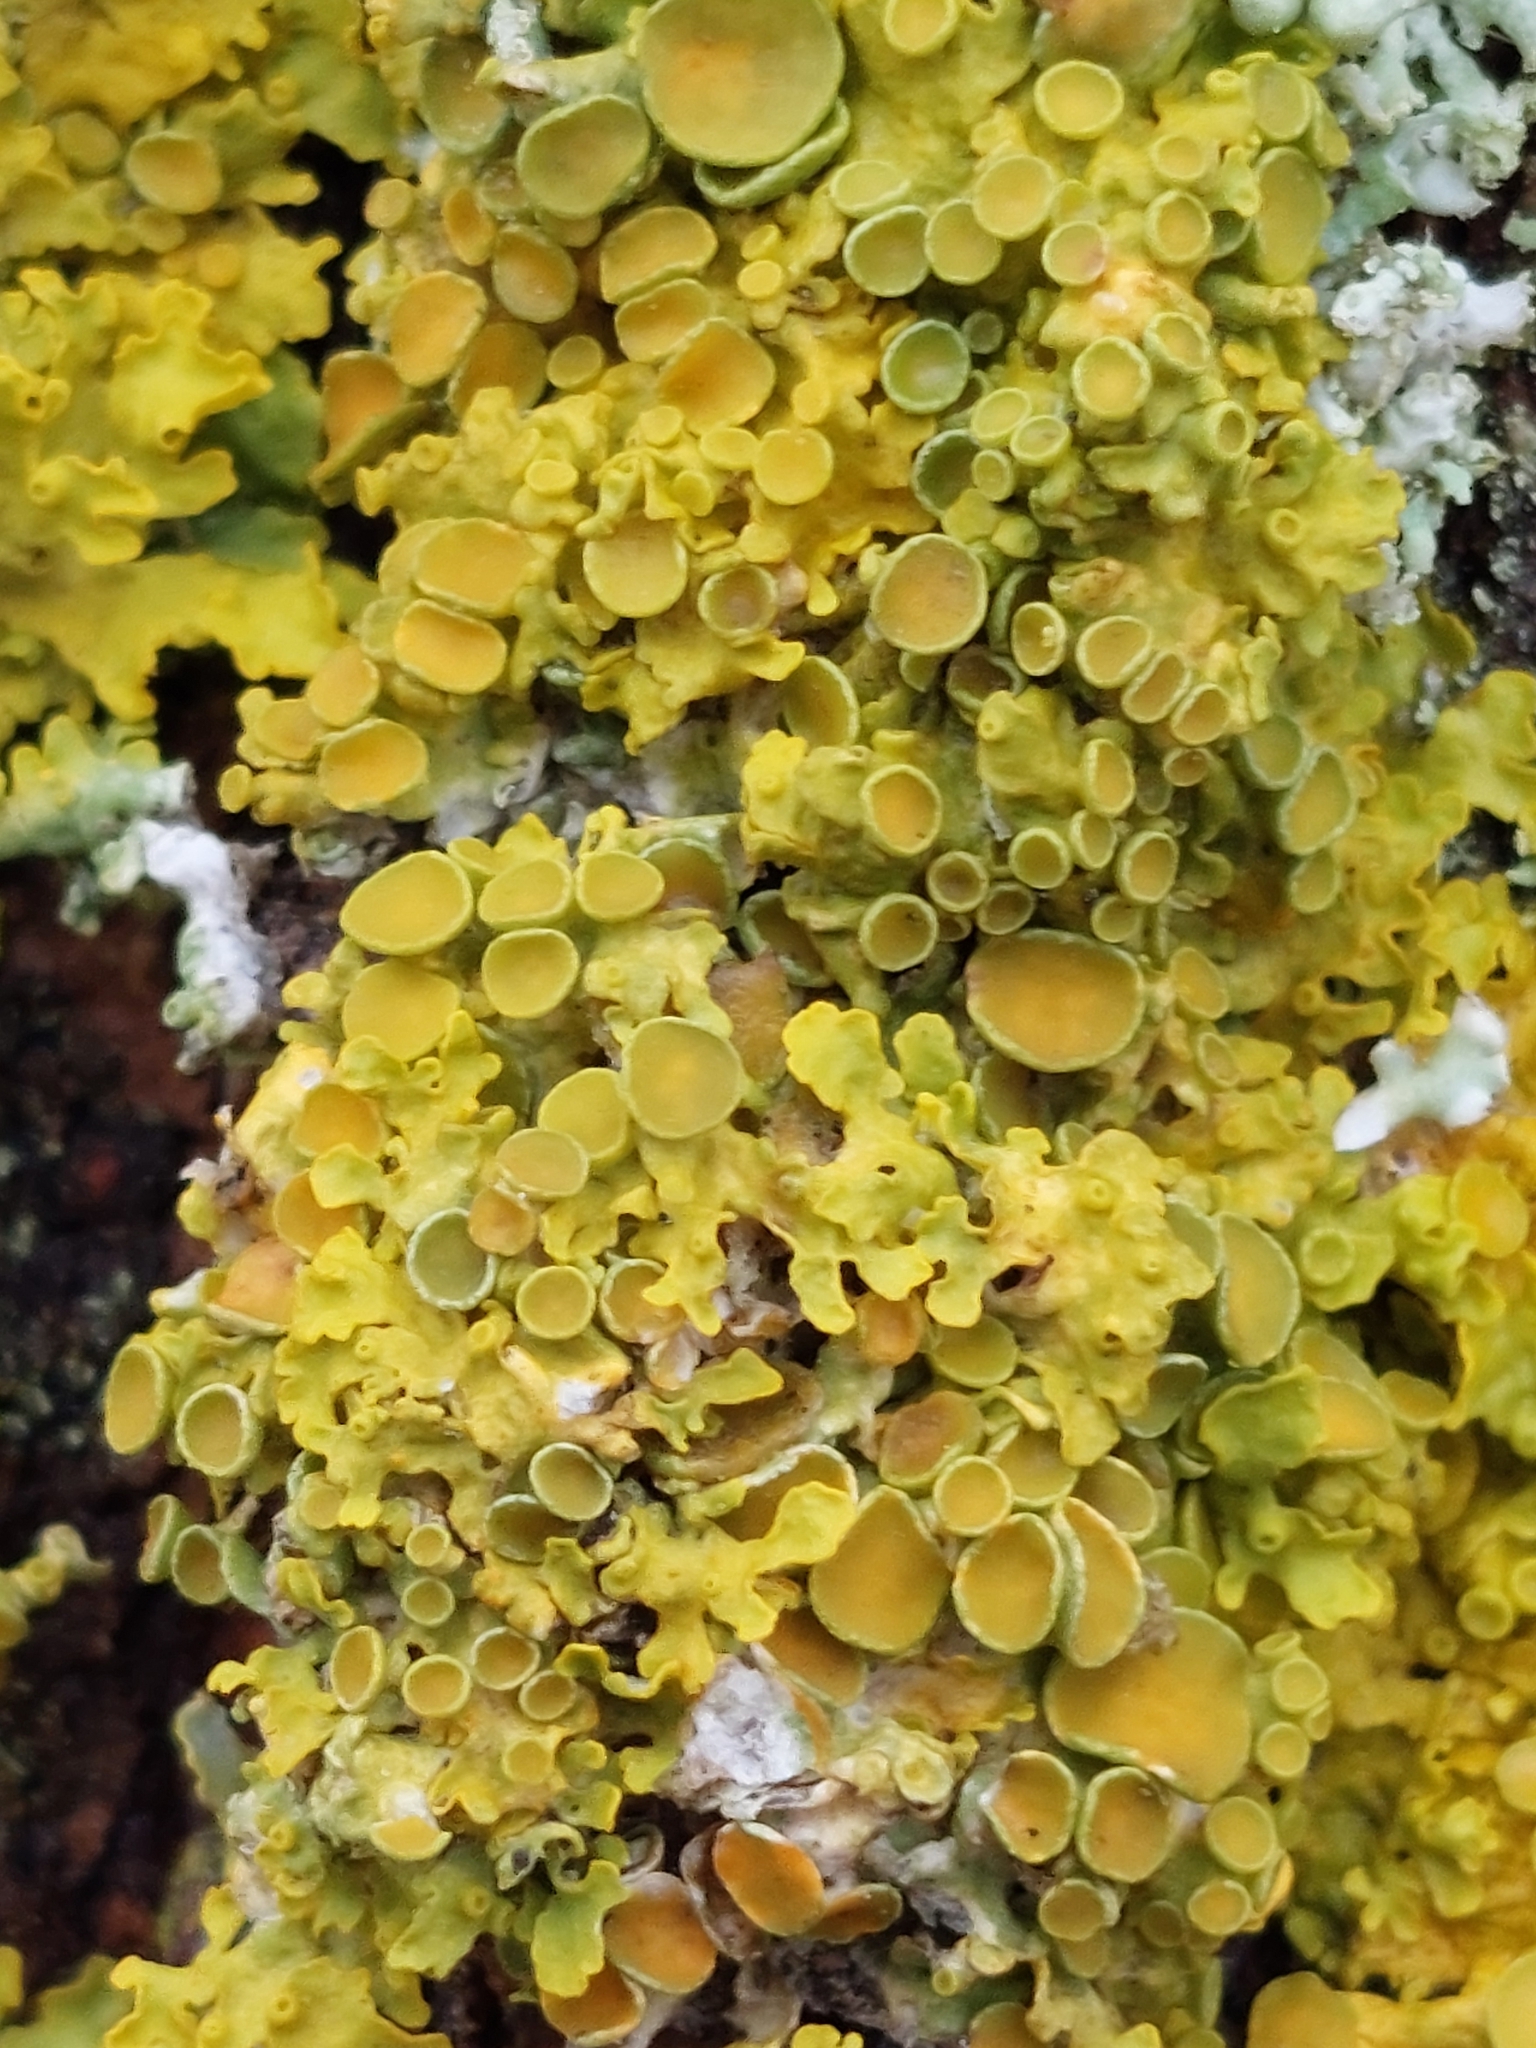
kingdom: Fungi
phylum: Ascomycota
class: Lecanoromycetes
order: Teloschistales
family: Teloschistaceae
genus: Xanthoria
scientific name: Xanthoria parietina
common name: Common orange lichen
